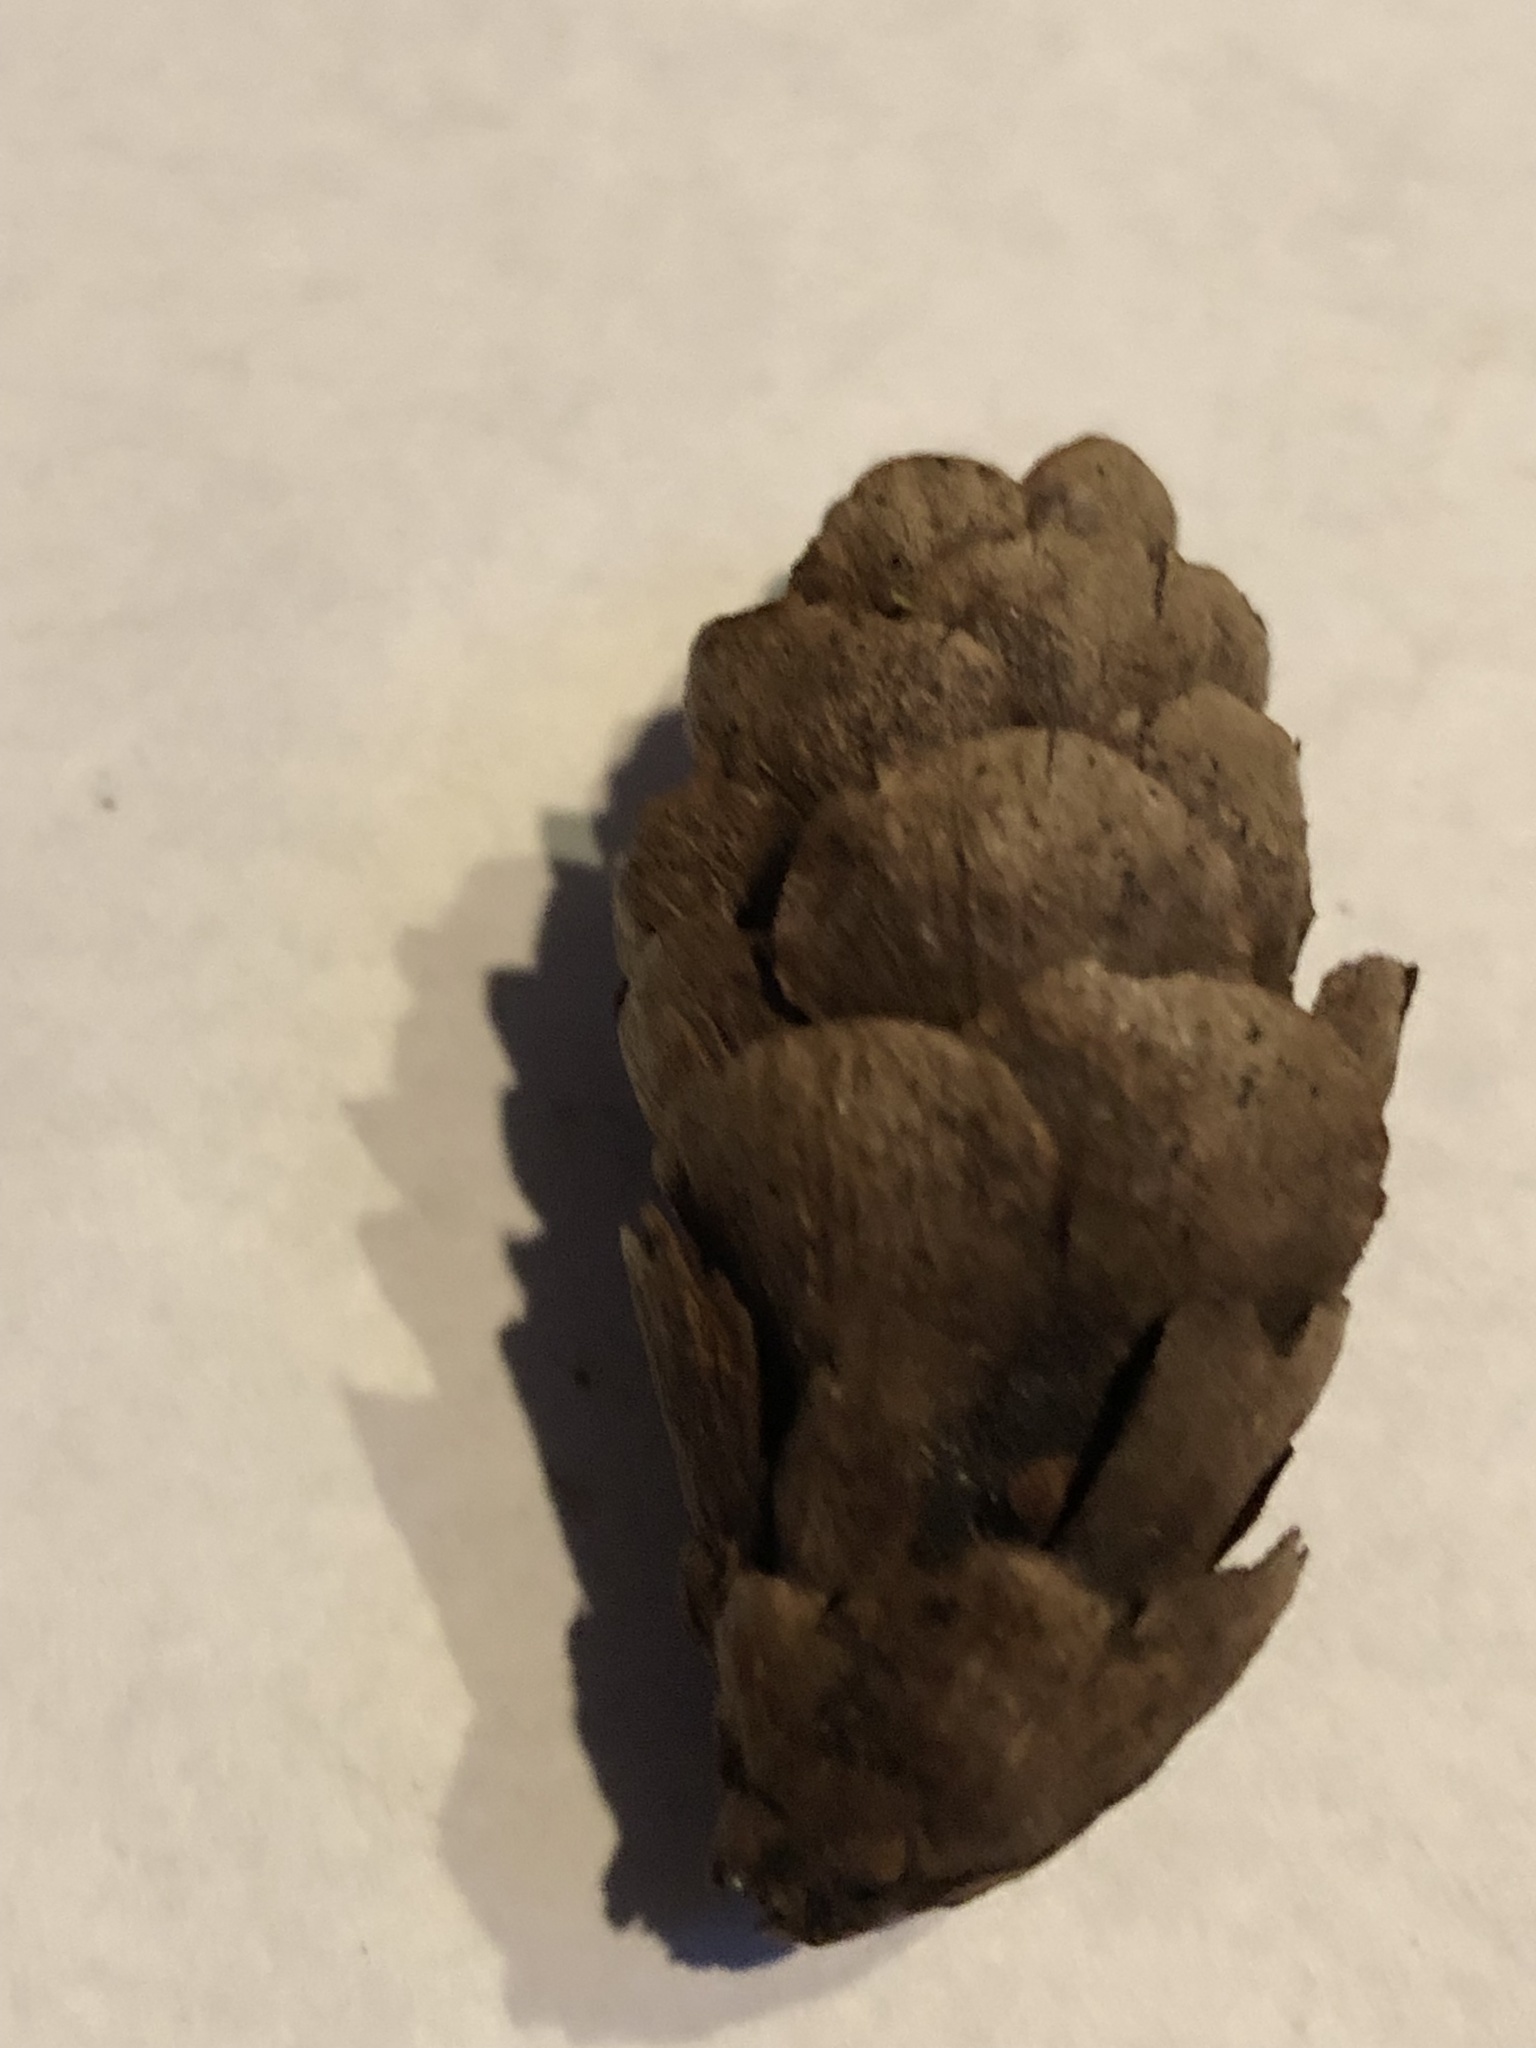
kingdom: Plantae
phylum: Tracheophyta
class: Pinopsida
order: Pinales
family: Pinaceae
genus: Picea
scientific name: Picea glauca
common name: White spruce
